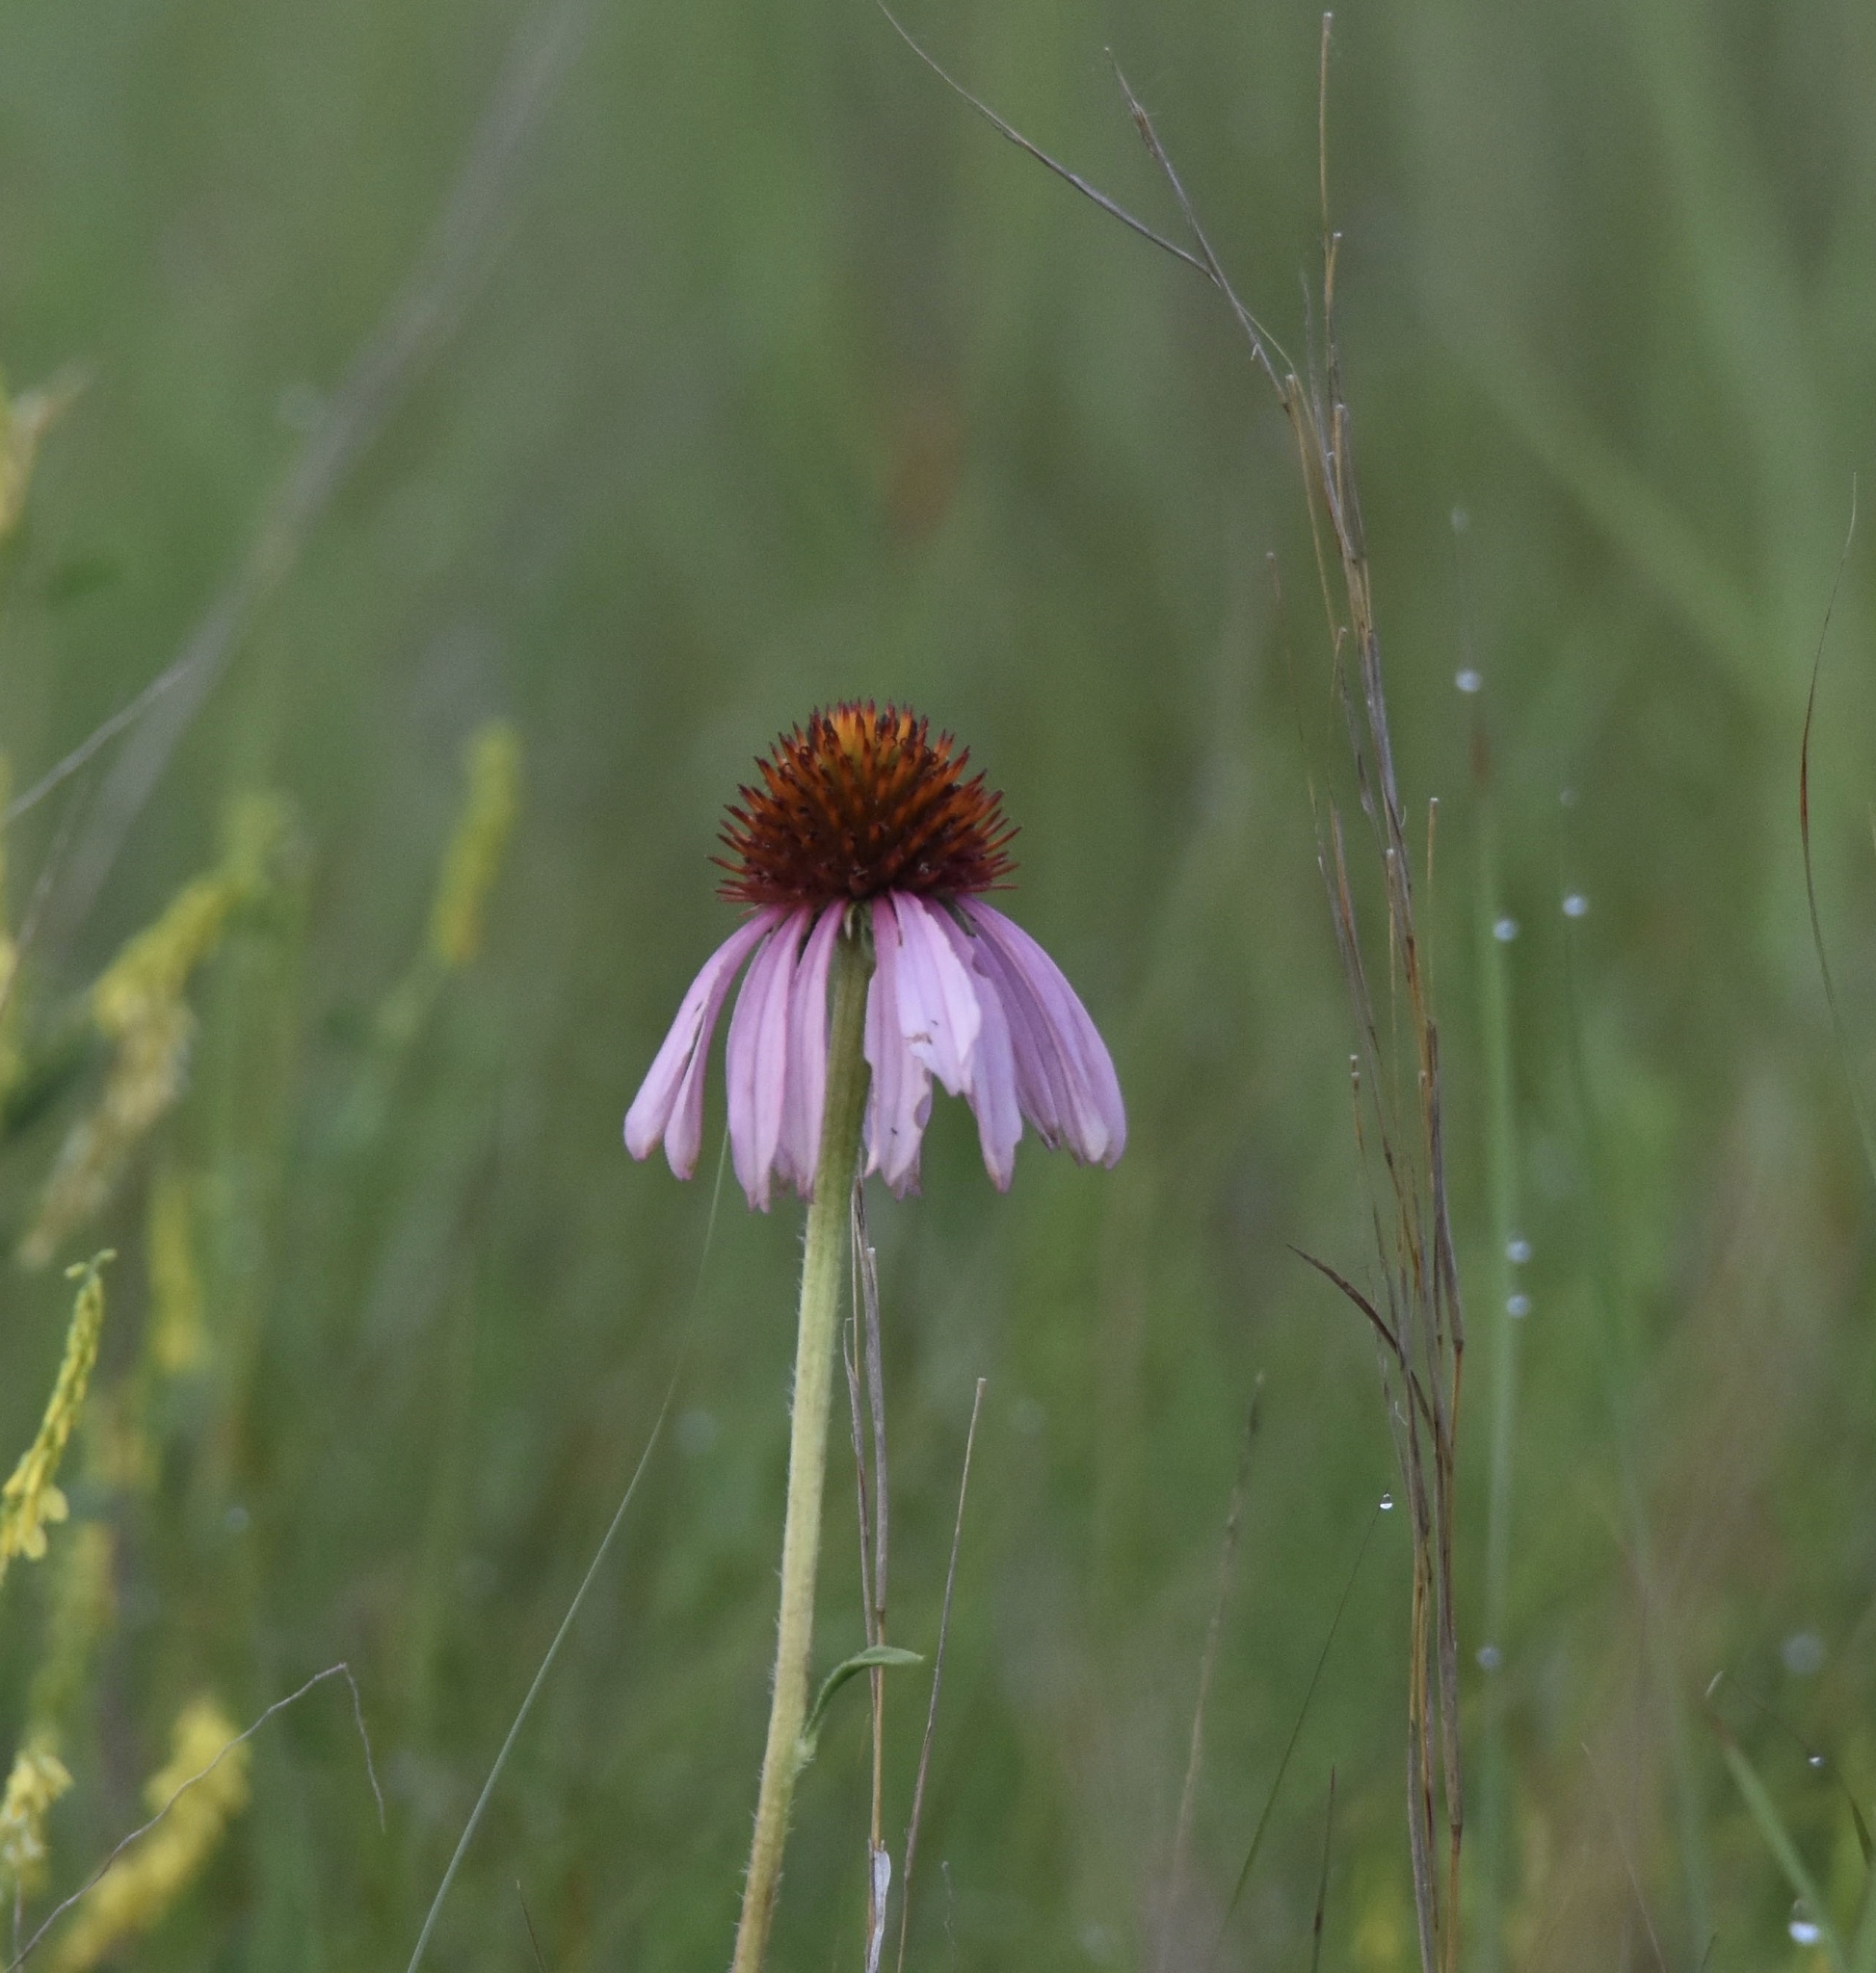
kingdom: Plantae
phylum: Tracheophyta
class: Magnoliopsida
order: Asterales
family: Asteraceae
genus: Echinacea
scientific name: Echinacea angustifolia
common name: Black-sampson echinacea
